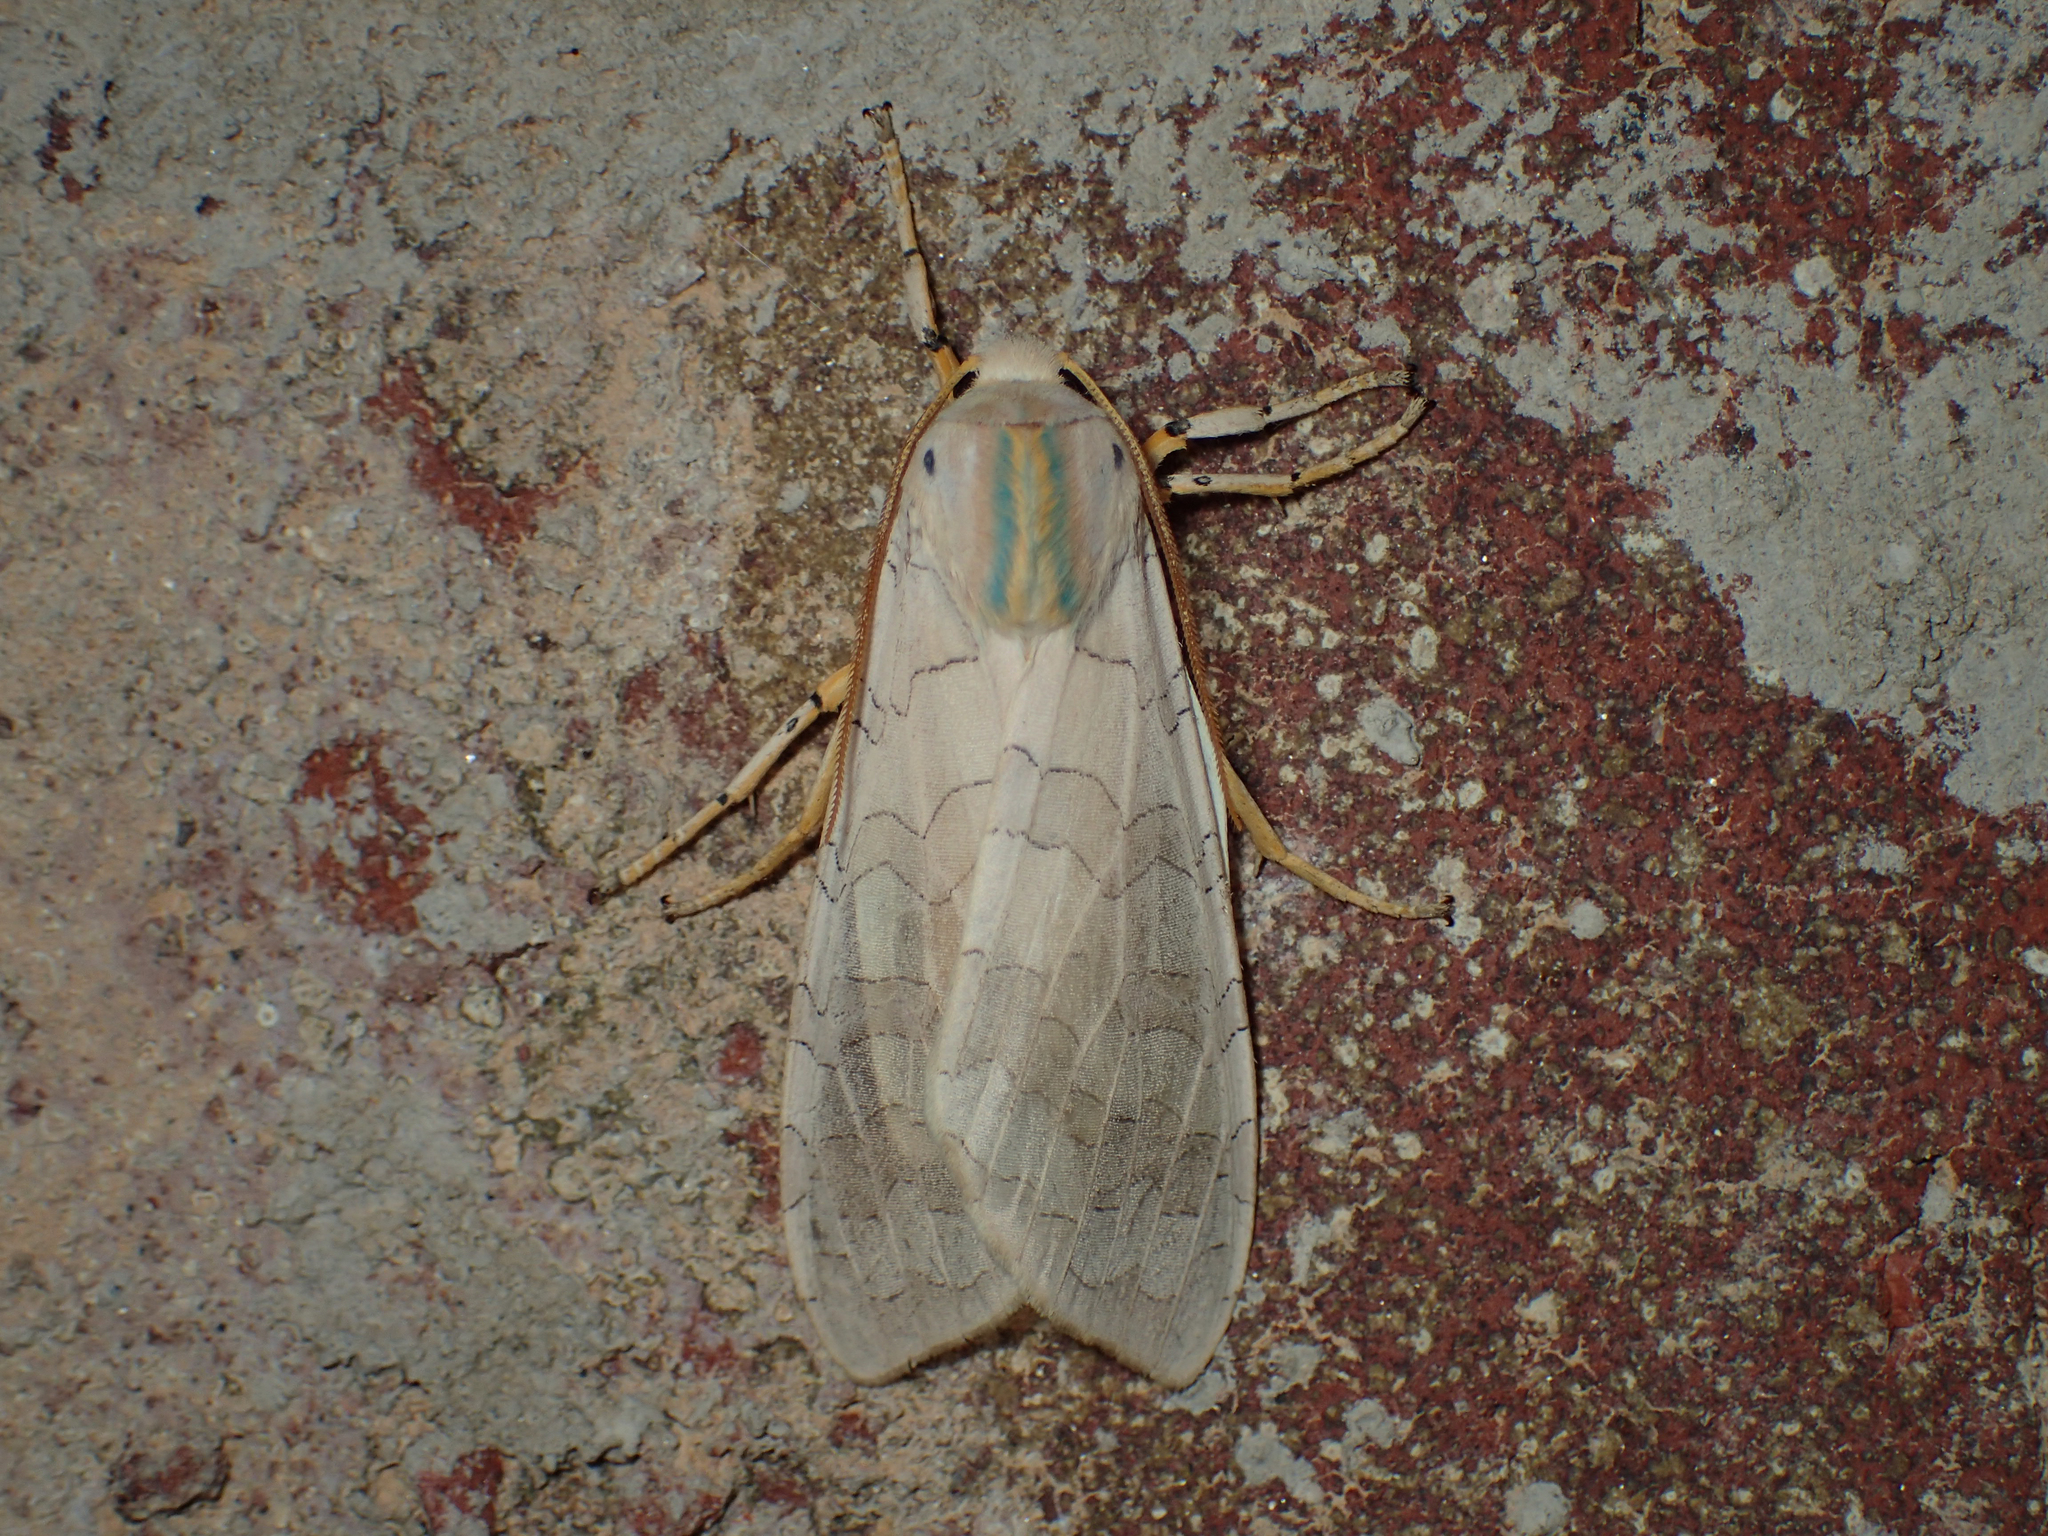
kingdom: Animalia
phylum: Arthropoda
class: Insecta
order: Lepidoptera
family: Erebidae
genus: Halysidota
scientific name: Halysidota
